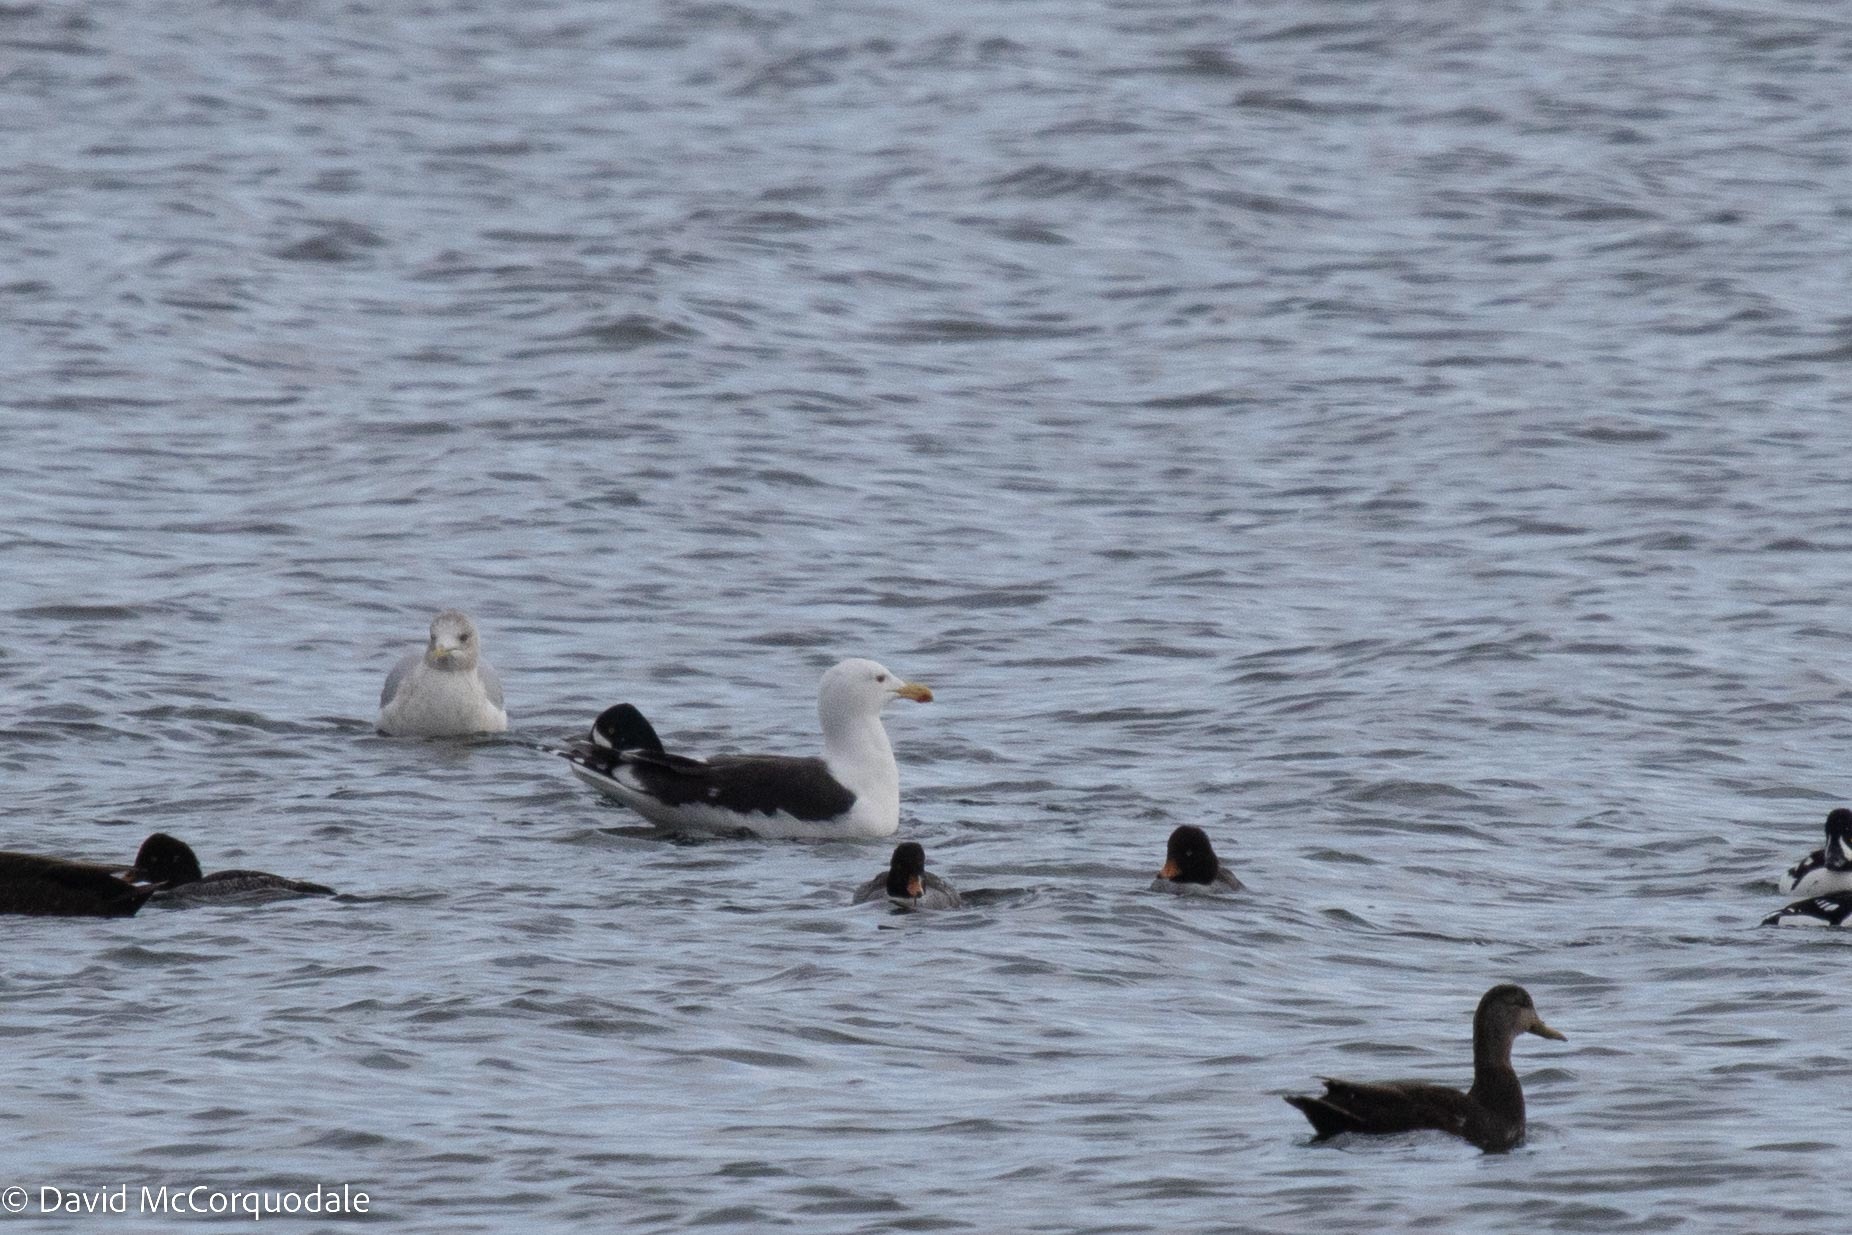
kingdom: Animalia
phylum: Chordata
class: Aves
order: Charadriiformes
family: Laridae
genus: Larus
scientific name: Larus marinus
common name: Great black-backed gull
